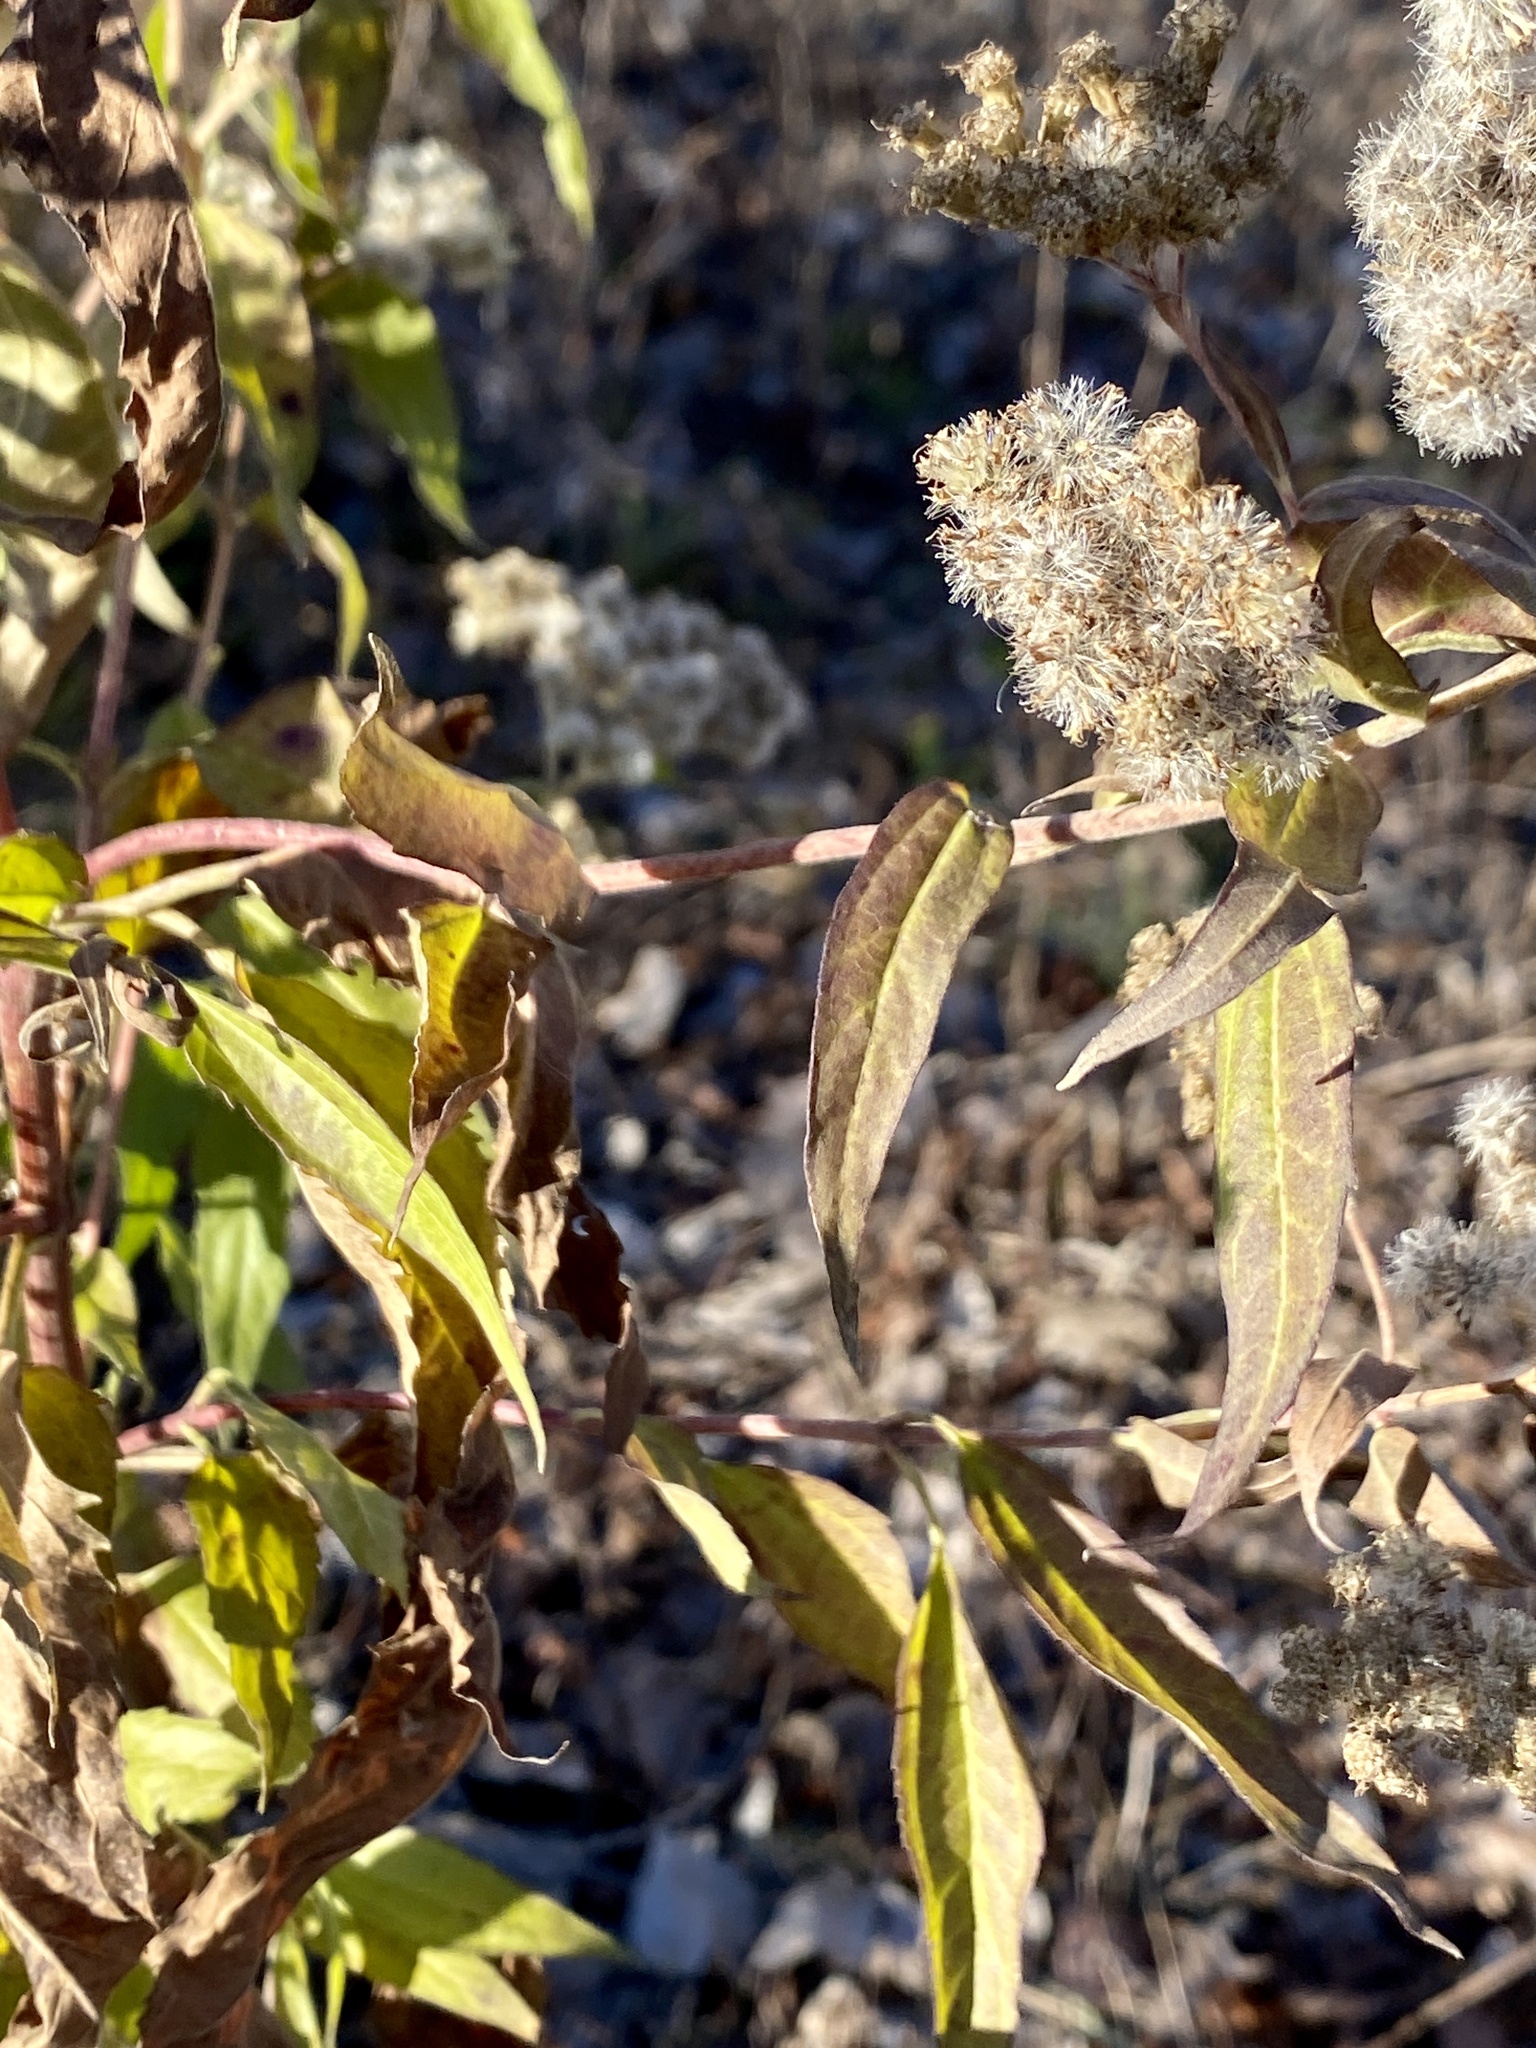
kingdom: Plantae
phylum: Tracheophyta
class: Magnoliopsida
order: Asterales
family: Asteraceae
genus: Eupatorium
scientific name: Eupatorium serotinum
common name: Late boneset
